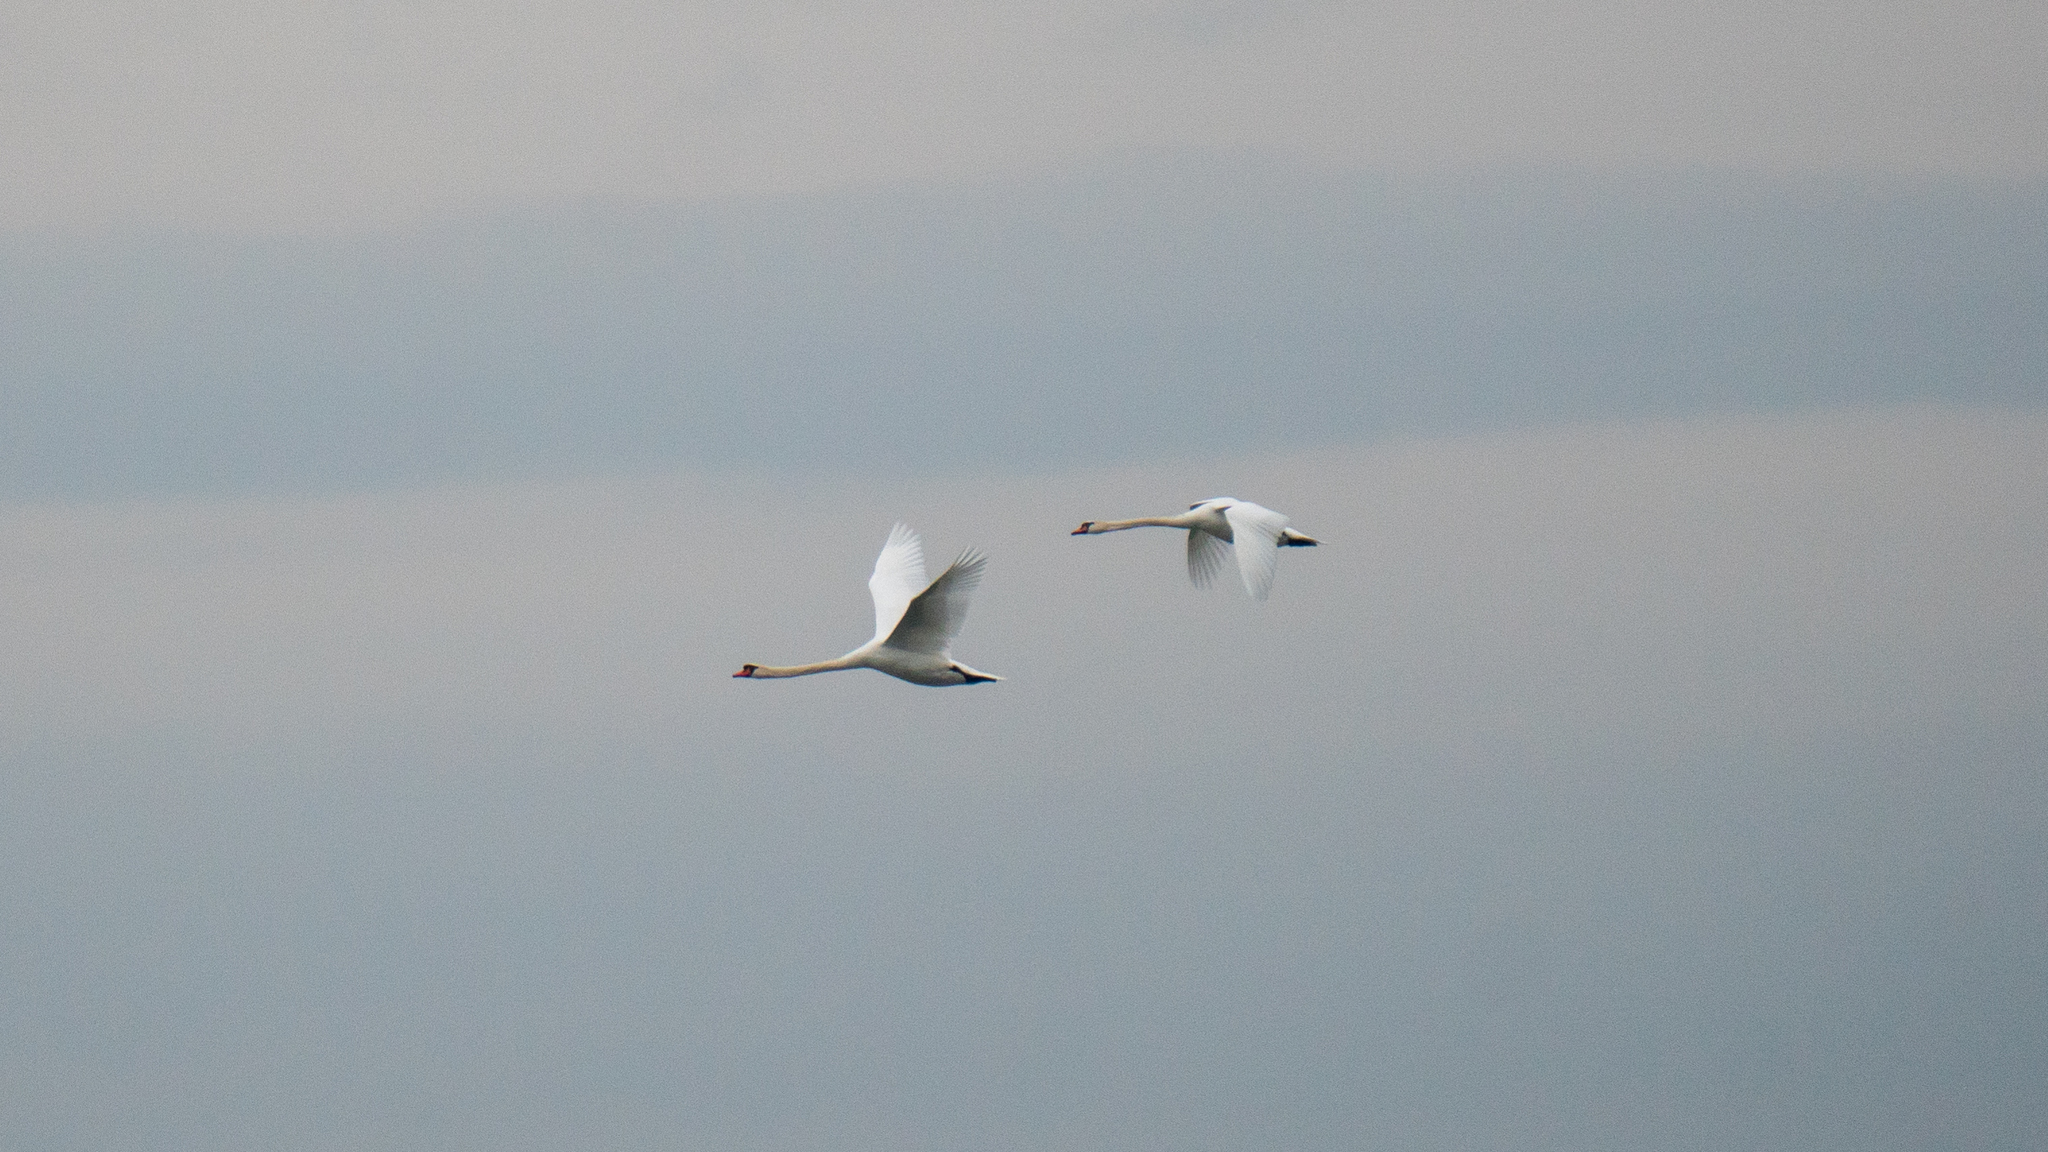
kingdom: Animalia
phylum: Chordata
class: Aves
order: Anseriformes
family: Anatidae
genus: Cygnus
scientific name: Cygnus olor
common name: Mute swan
